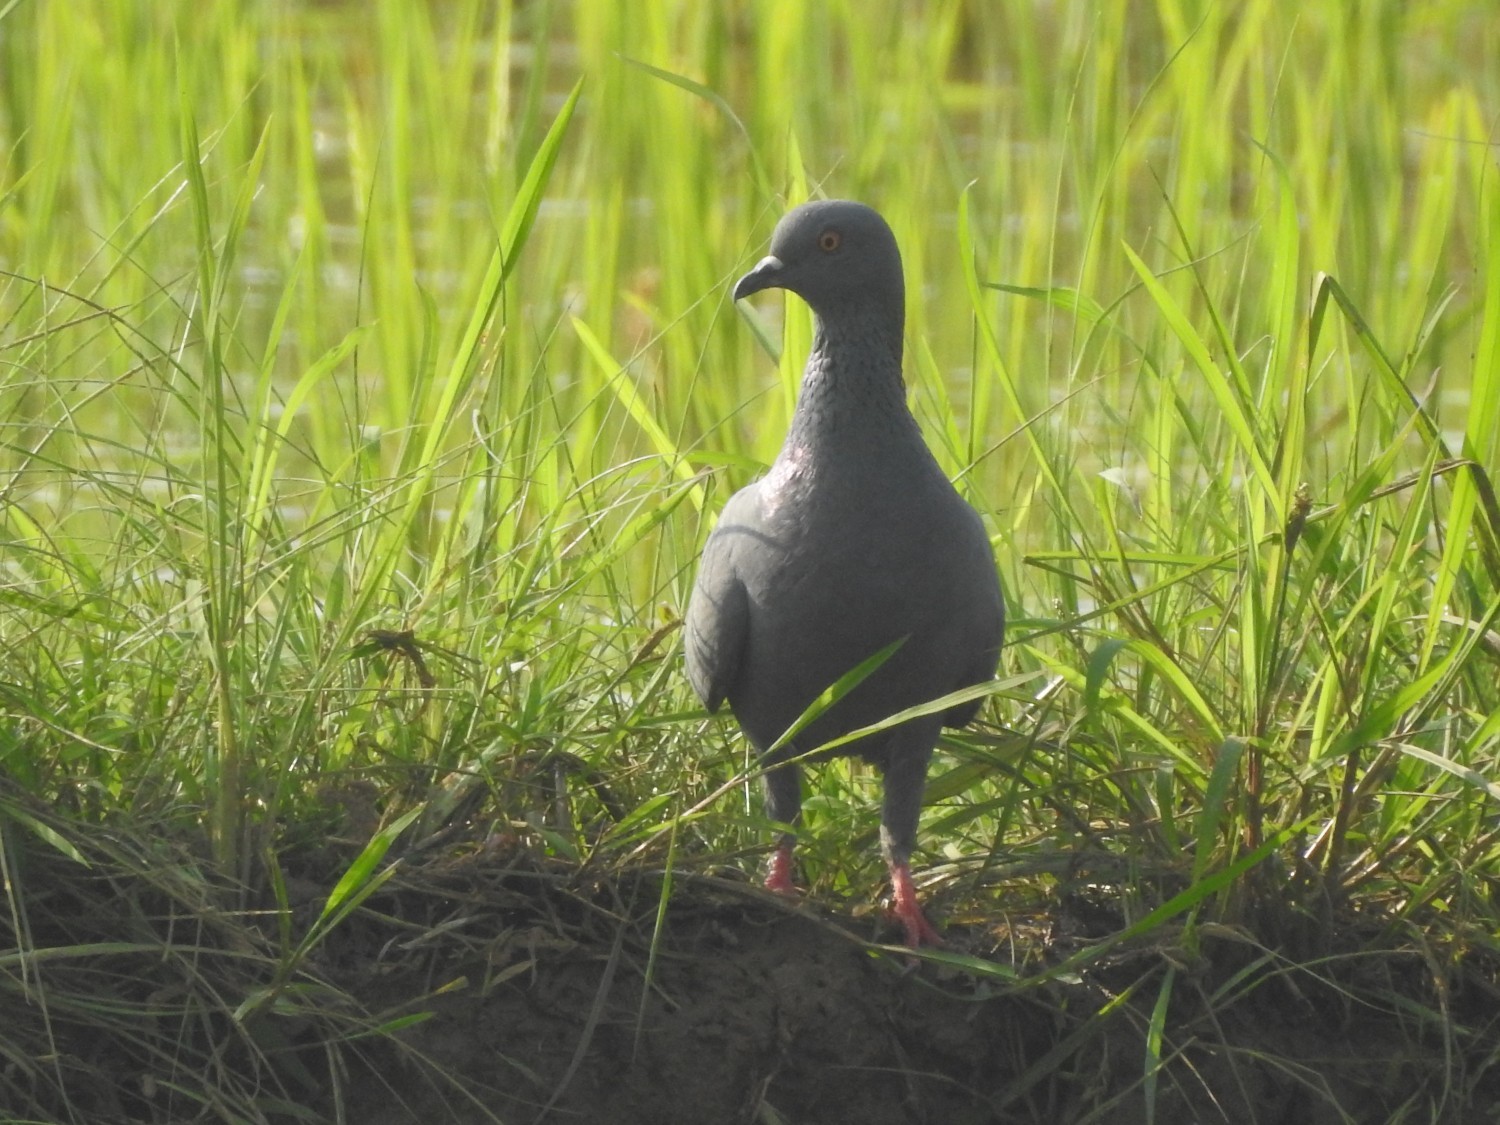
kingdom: Animalia
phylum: Chordata
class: Aves
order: Columbiformes
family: Columbidae
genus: Columba
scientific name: Columba livia
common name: Rock pigeon
